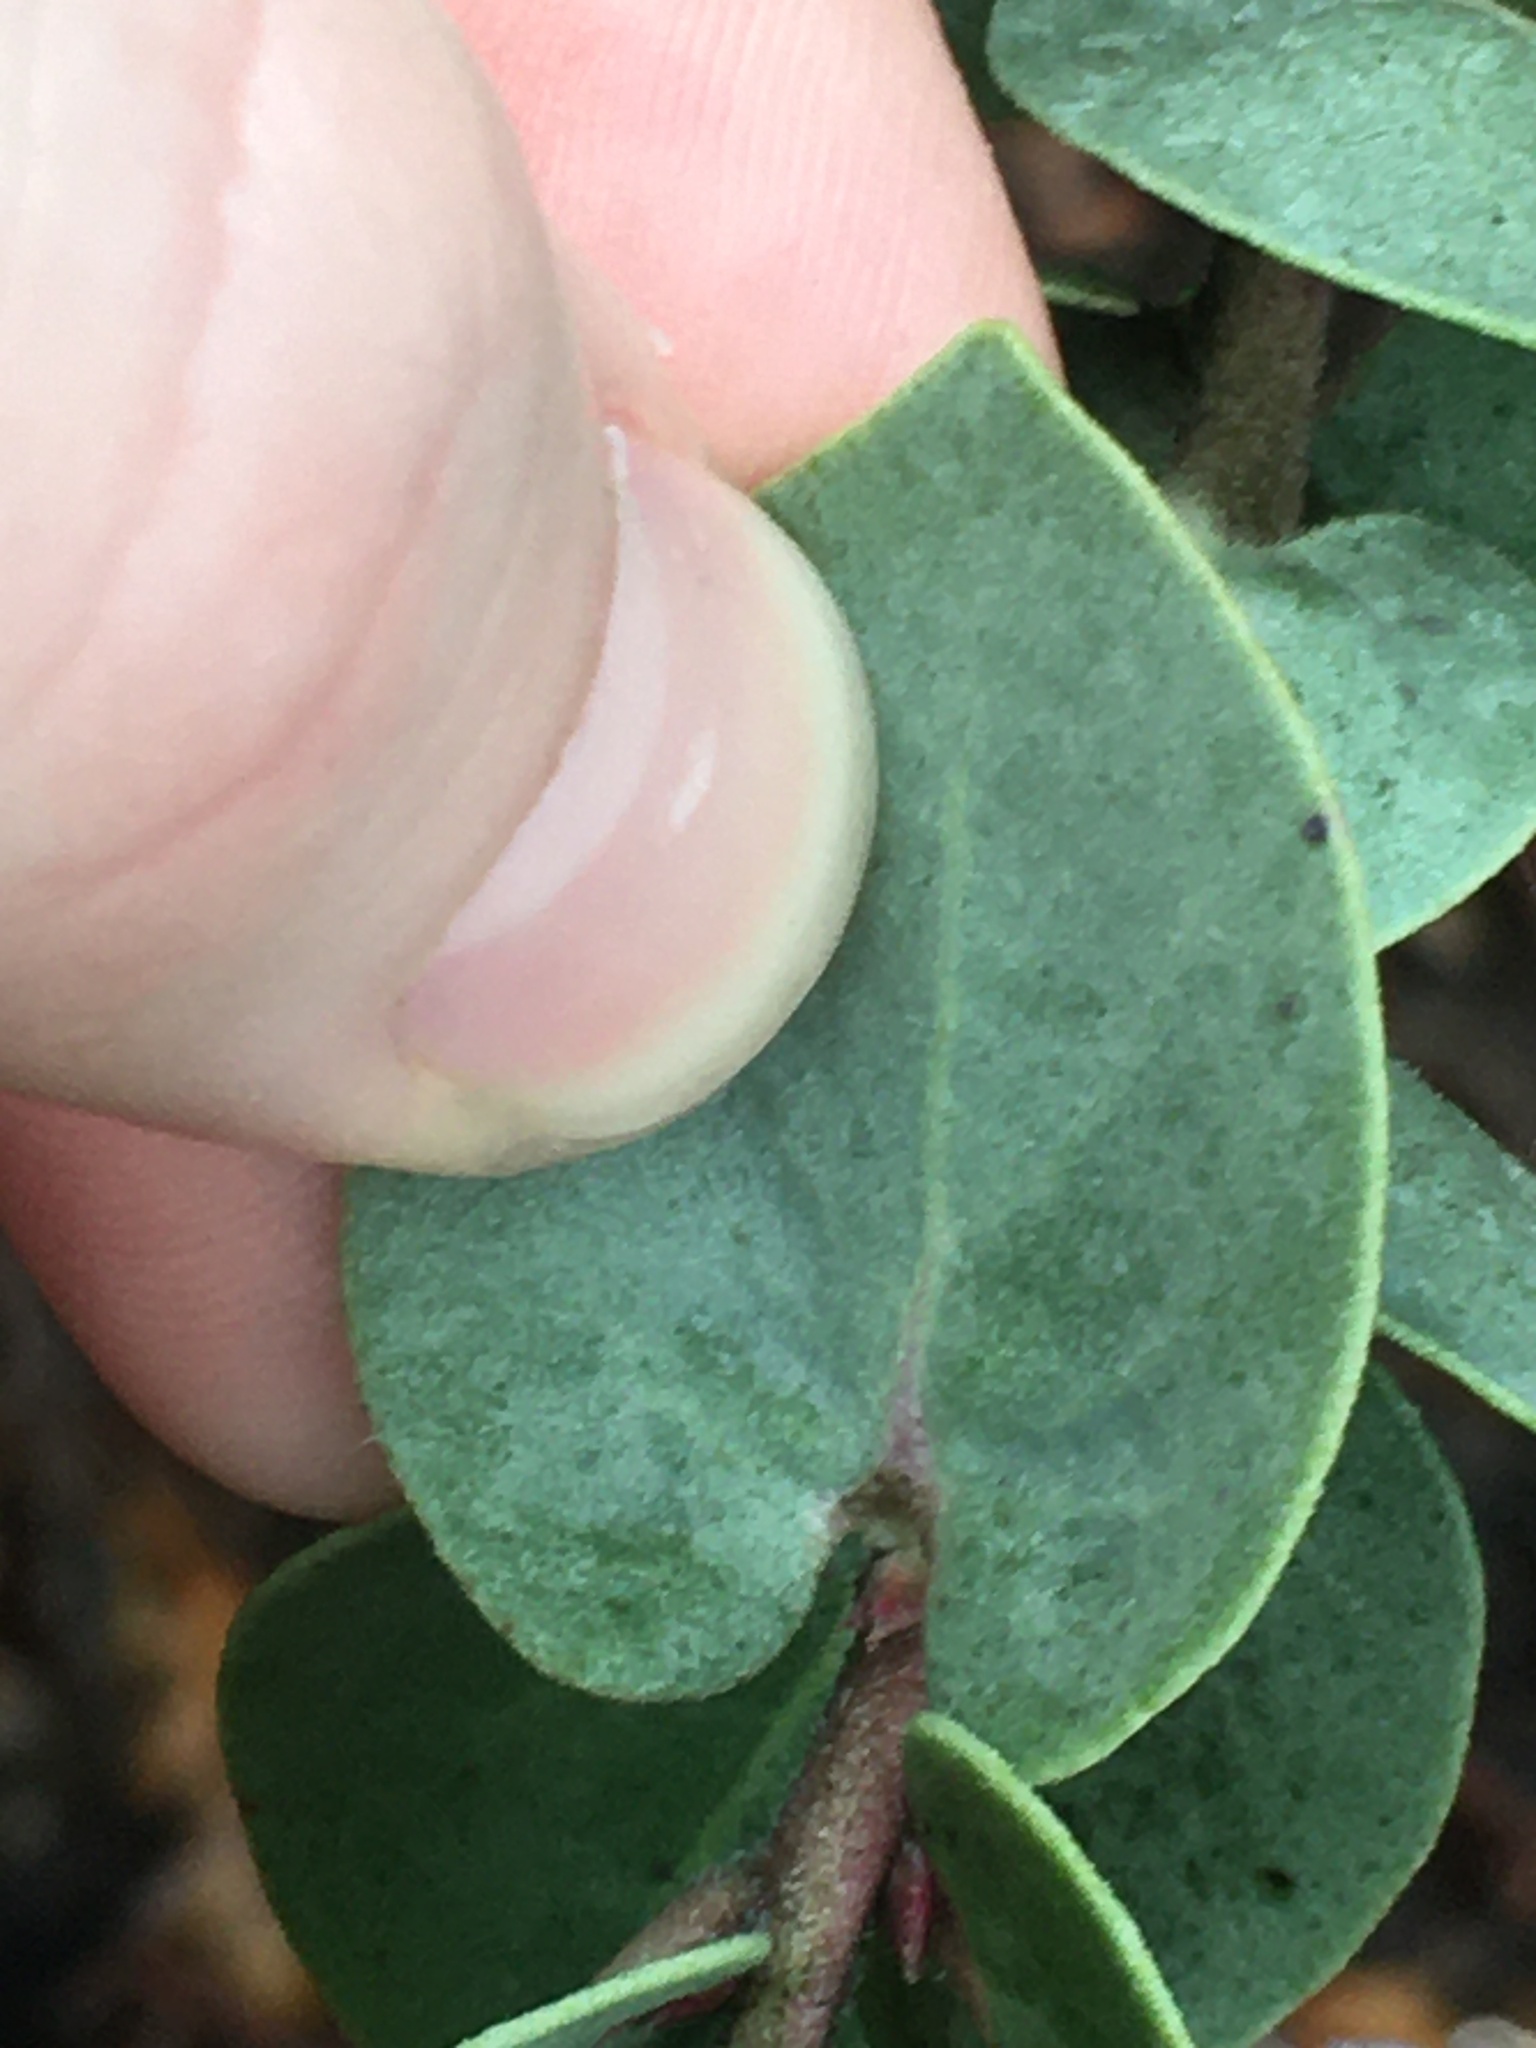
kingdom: Plantae
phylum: Tracheophyta
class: Magnoliopsida
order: Ericales
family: Ericaceae
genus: Arctostaphylos
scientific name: Arctostaphylos luciana
